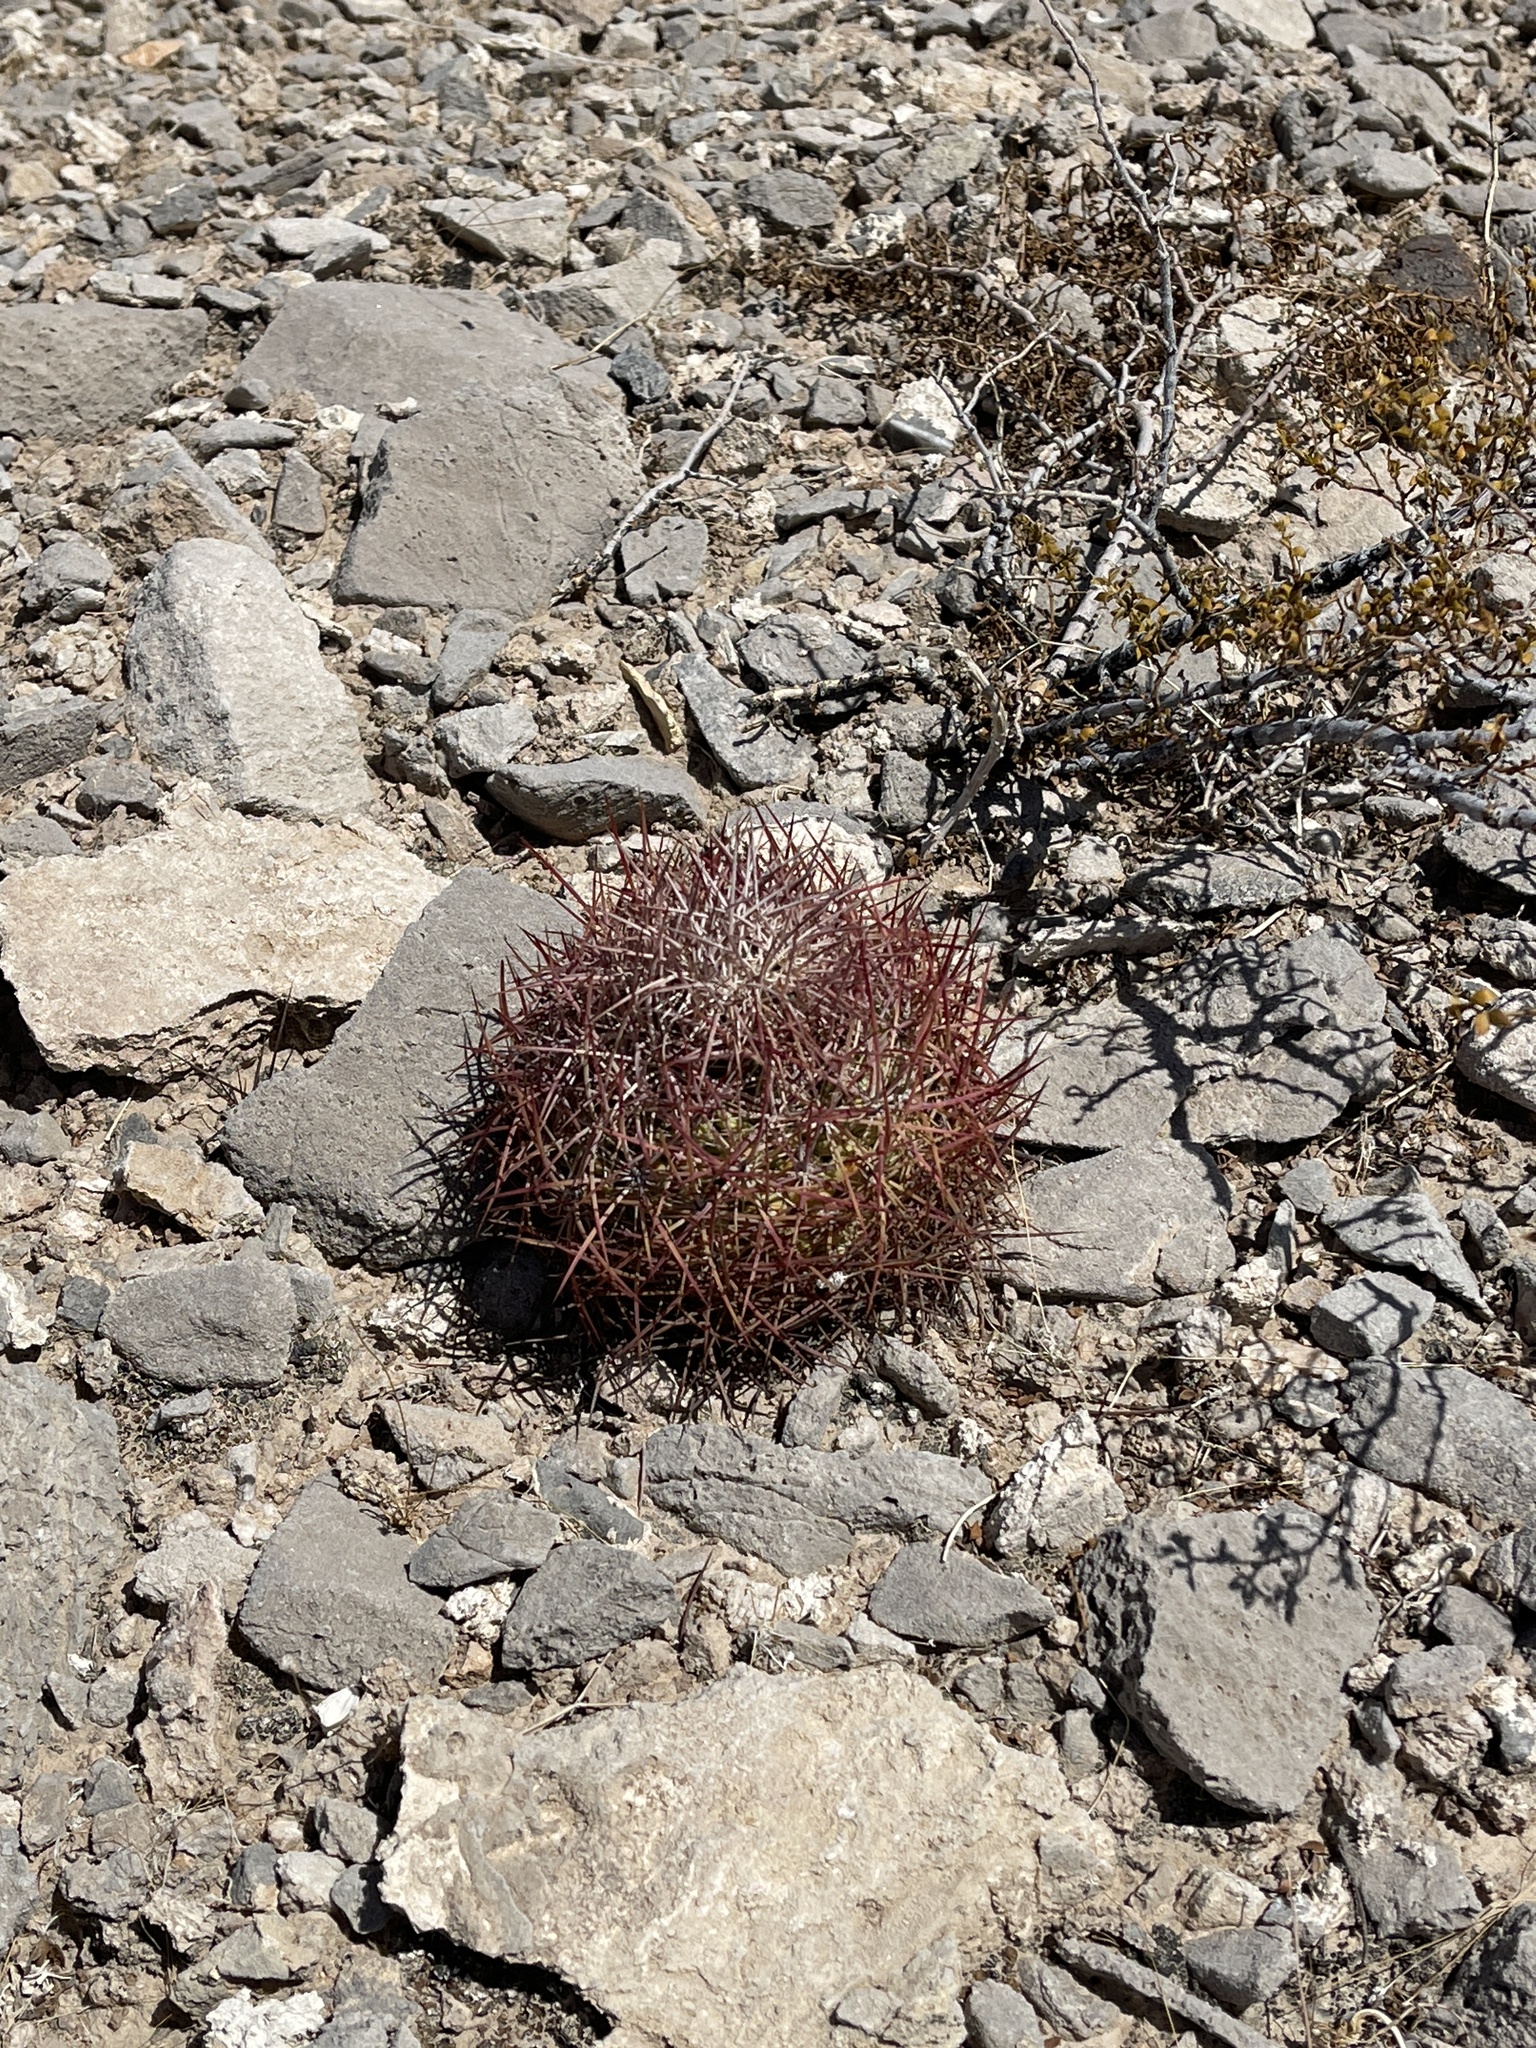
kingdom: Plantae
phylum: Tracheophyta
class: Magnoliopsida
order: Caryophyllales
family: Cactaceae
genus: Sclerocactus
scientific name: Sclerocactus johnsonii
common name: Eight-spine fishhook cactus
